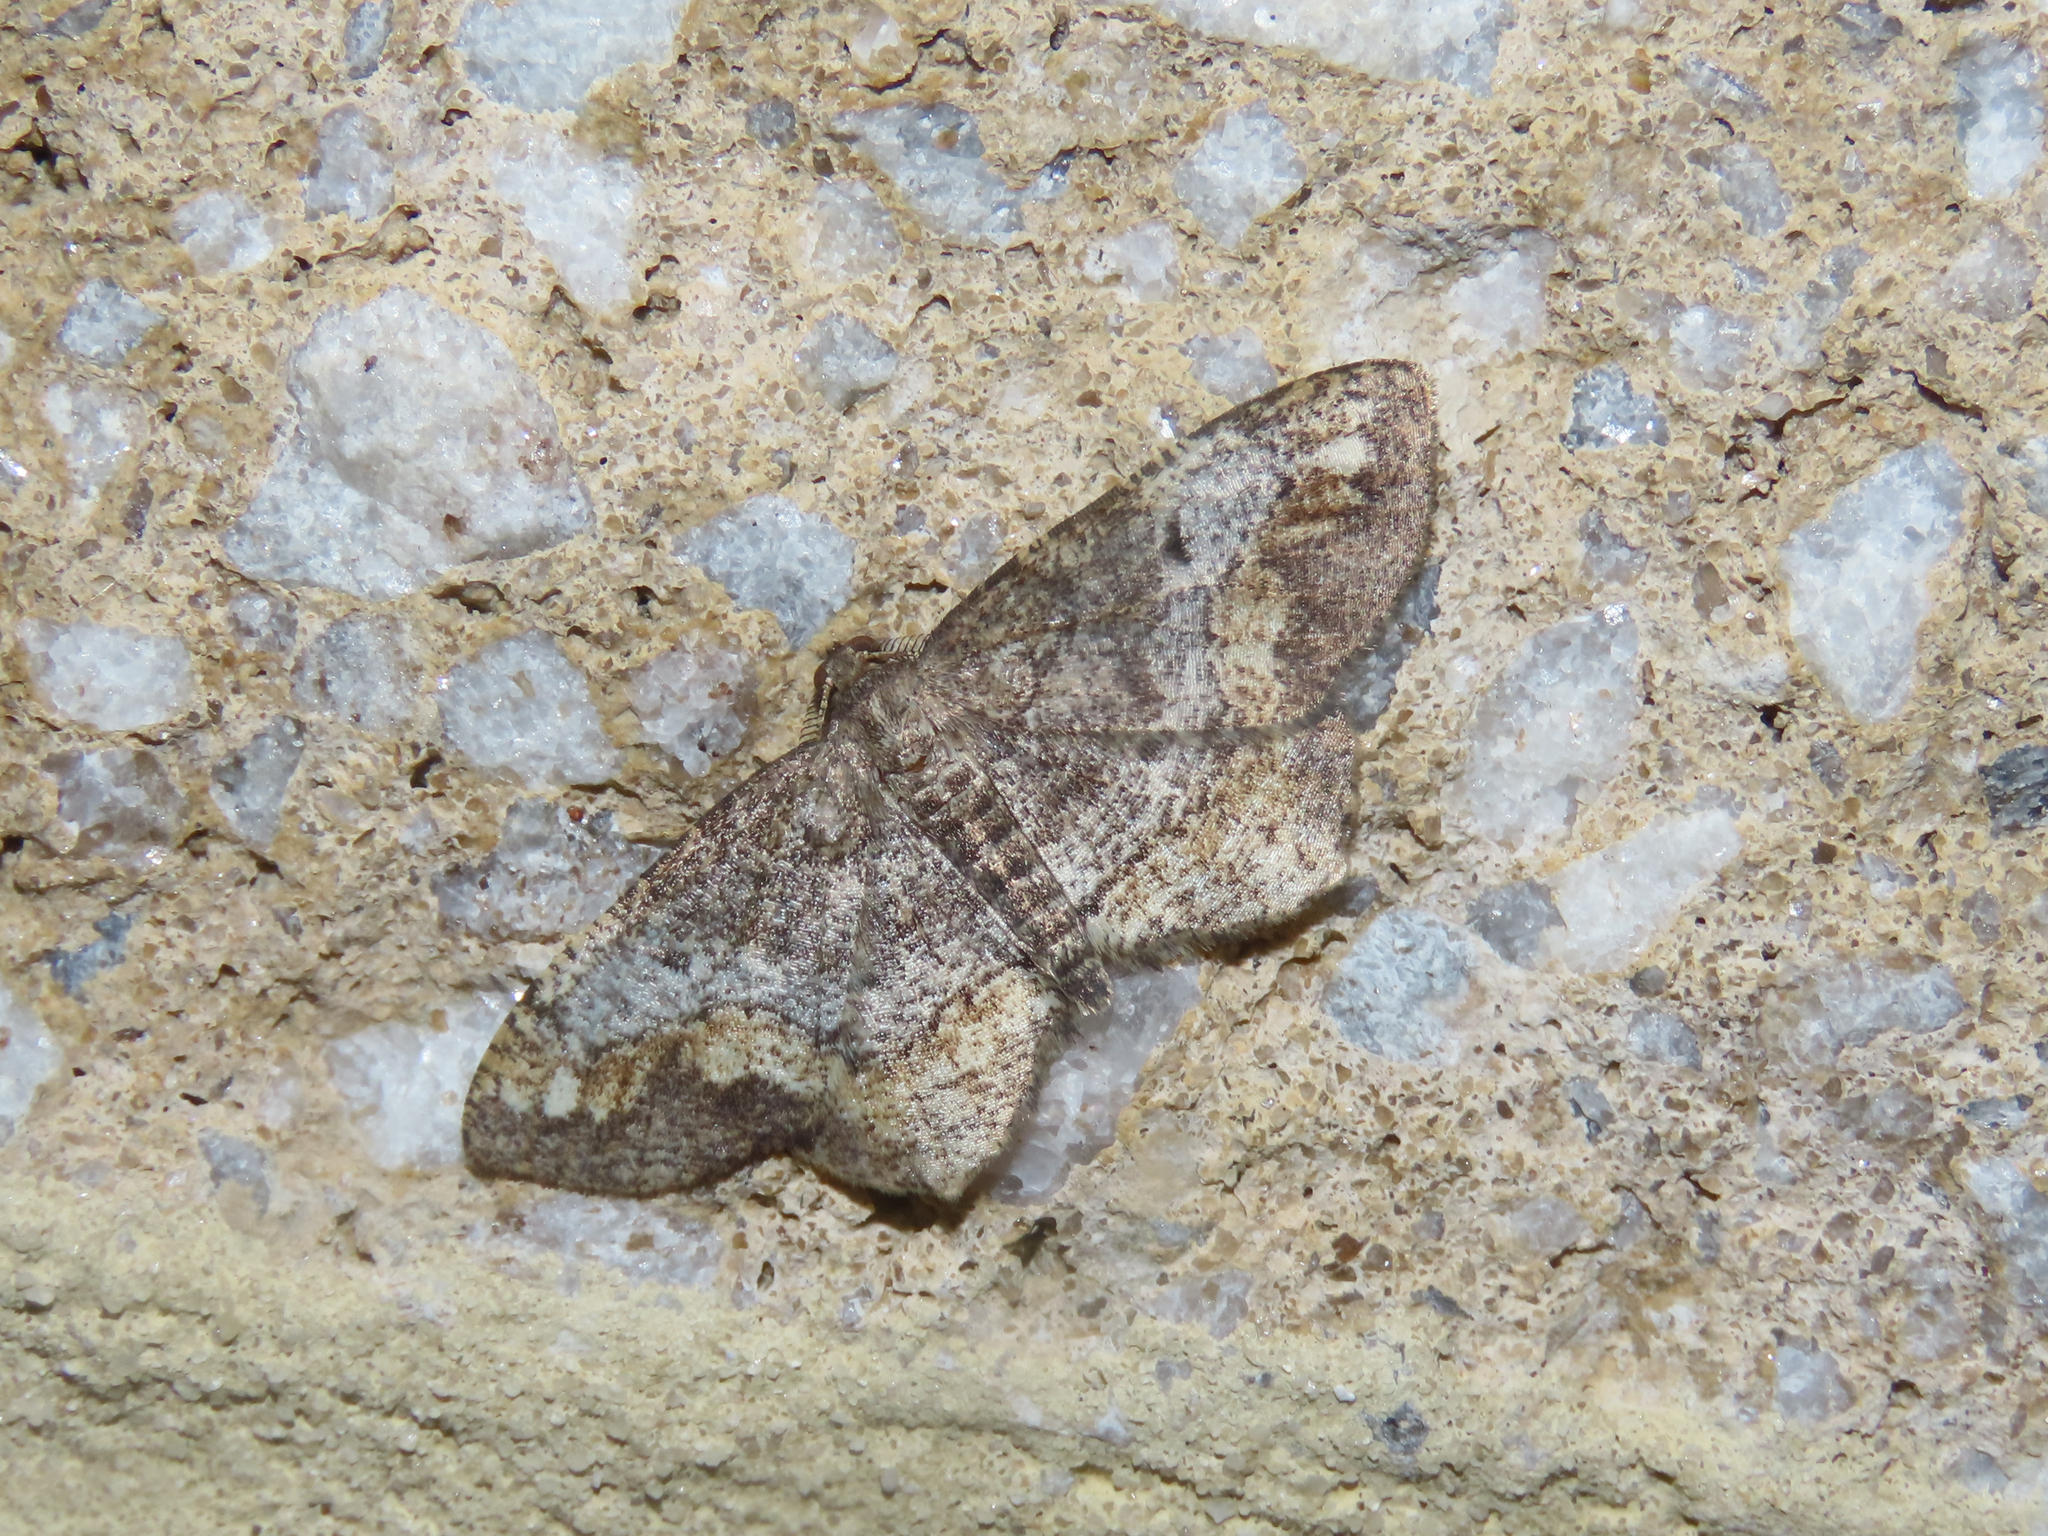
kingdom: Animalia
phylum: Arthropoda
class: Insecta
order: Lepidoptera
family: Geometridae
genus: Hypagyrtis
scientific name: Hypagyrtis unipunctata
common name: One-spotted variant
